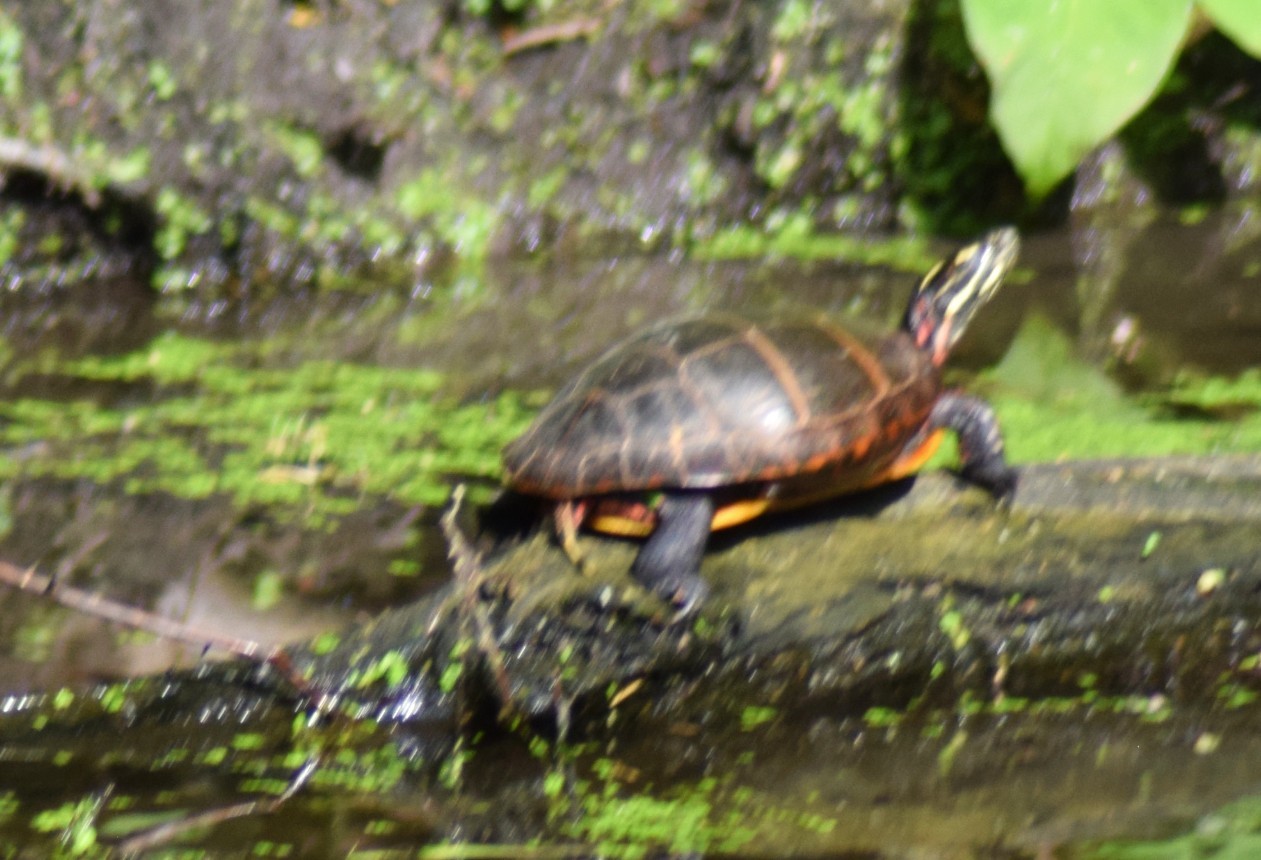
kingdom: Animalia
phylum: Chordata
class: Testudines
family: Emydidae
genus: Chrysemys
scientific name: Chrysemys picta
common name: Painted turtle
